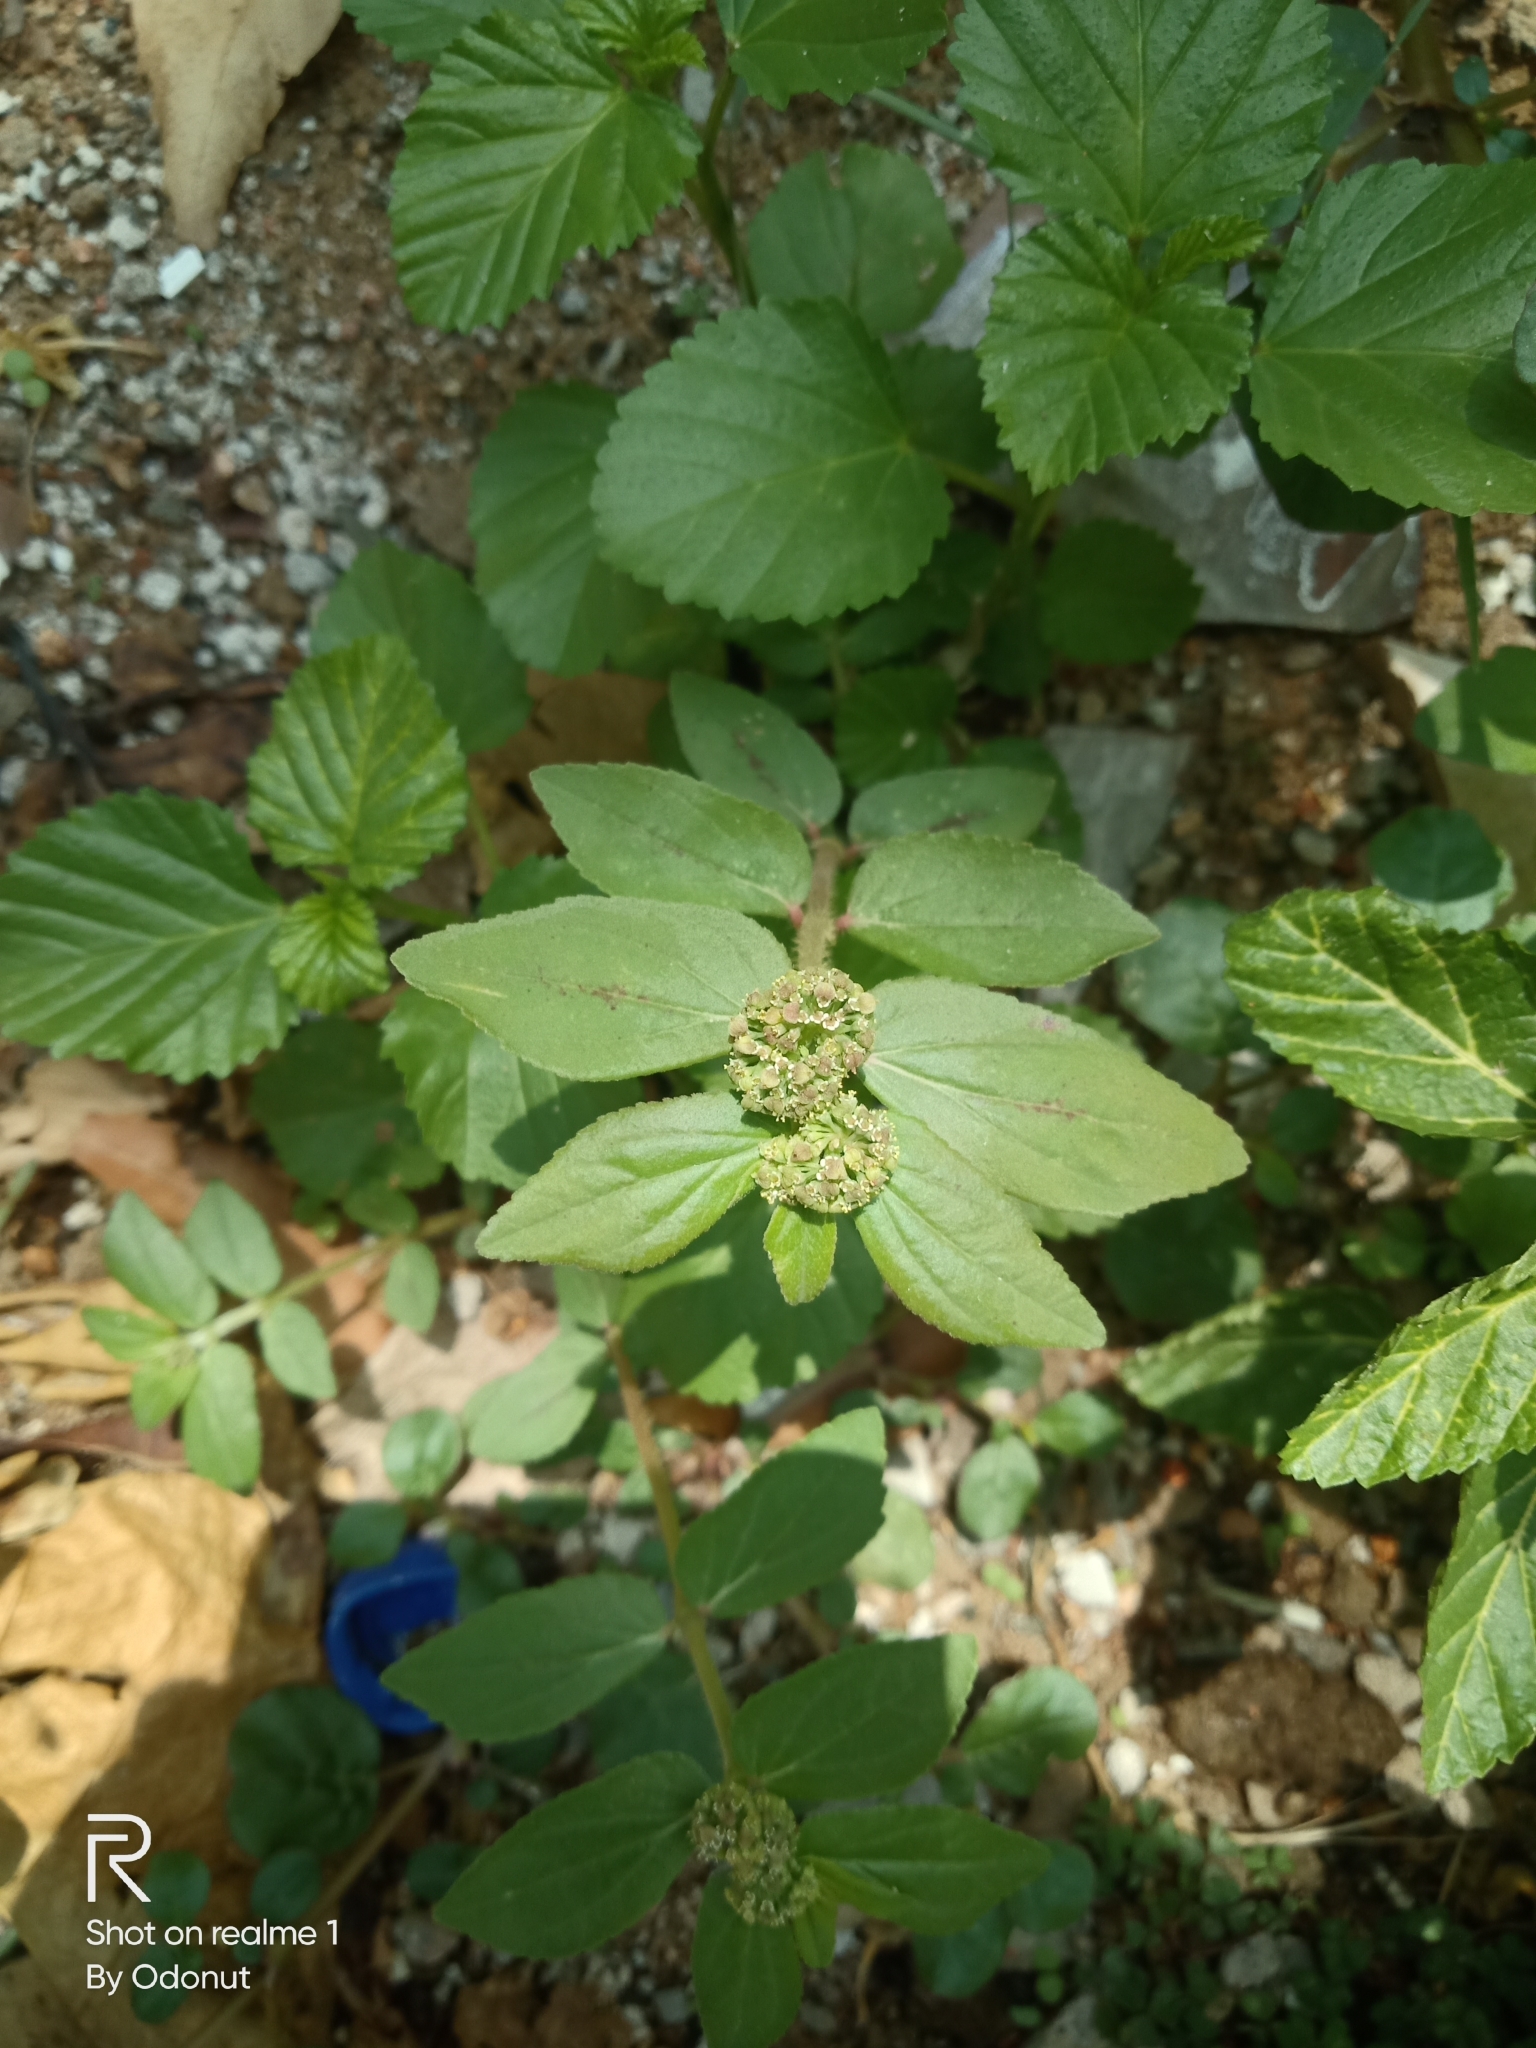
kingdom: Plantae
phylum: Tracheophyta
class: Magnoliopsida
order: Malpighiales
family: Euphorbiaceae
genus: Euphorbia
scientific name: Euphorbia hirta
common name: Pillpod sandmat
